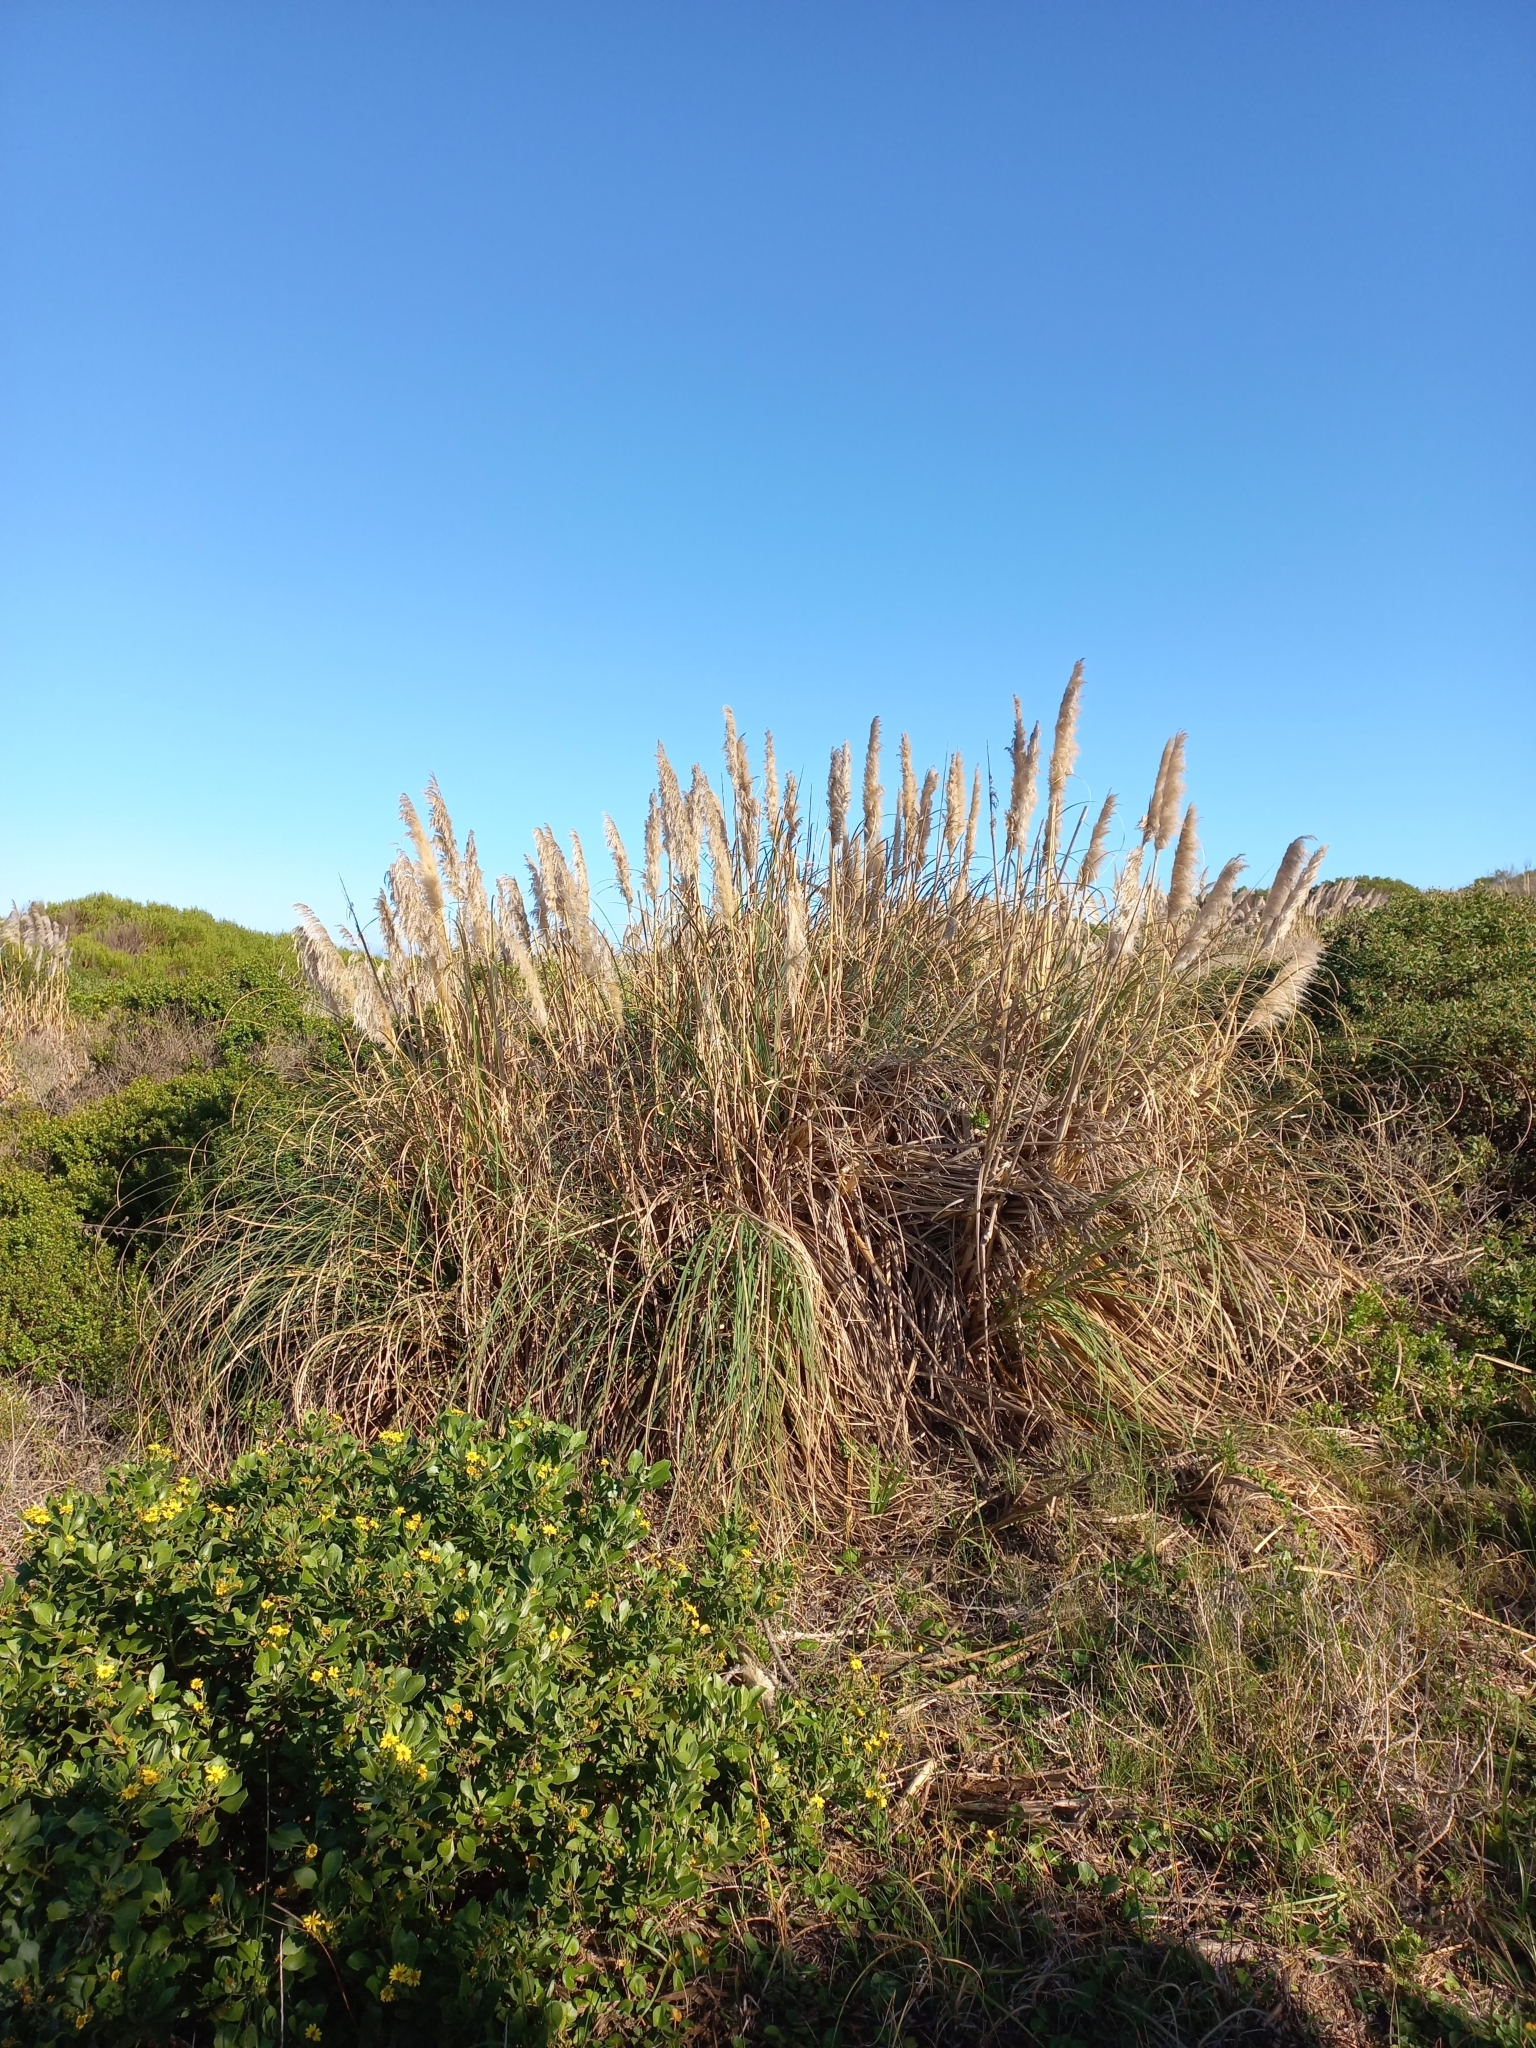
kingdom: Plantae
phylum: Tracheophyta
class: Liliopsida
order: Poales
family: Poaceae
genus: Cortaderia
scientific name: Cortaderia selloana
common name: Uruguayan pampas grass
